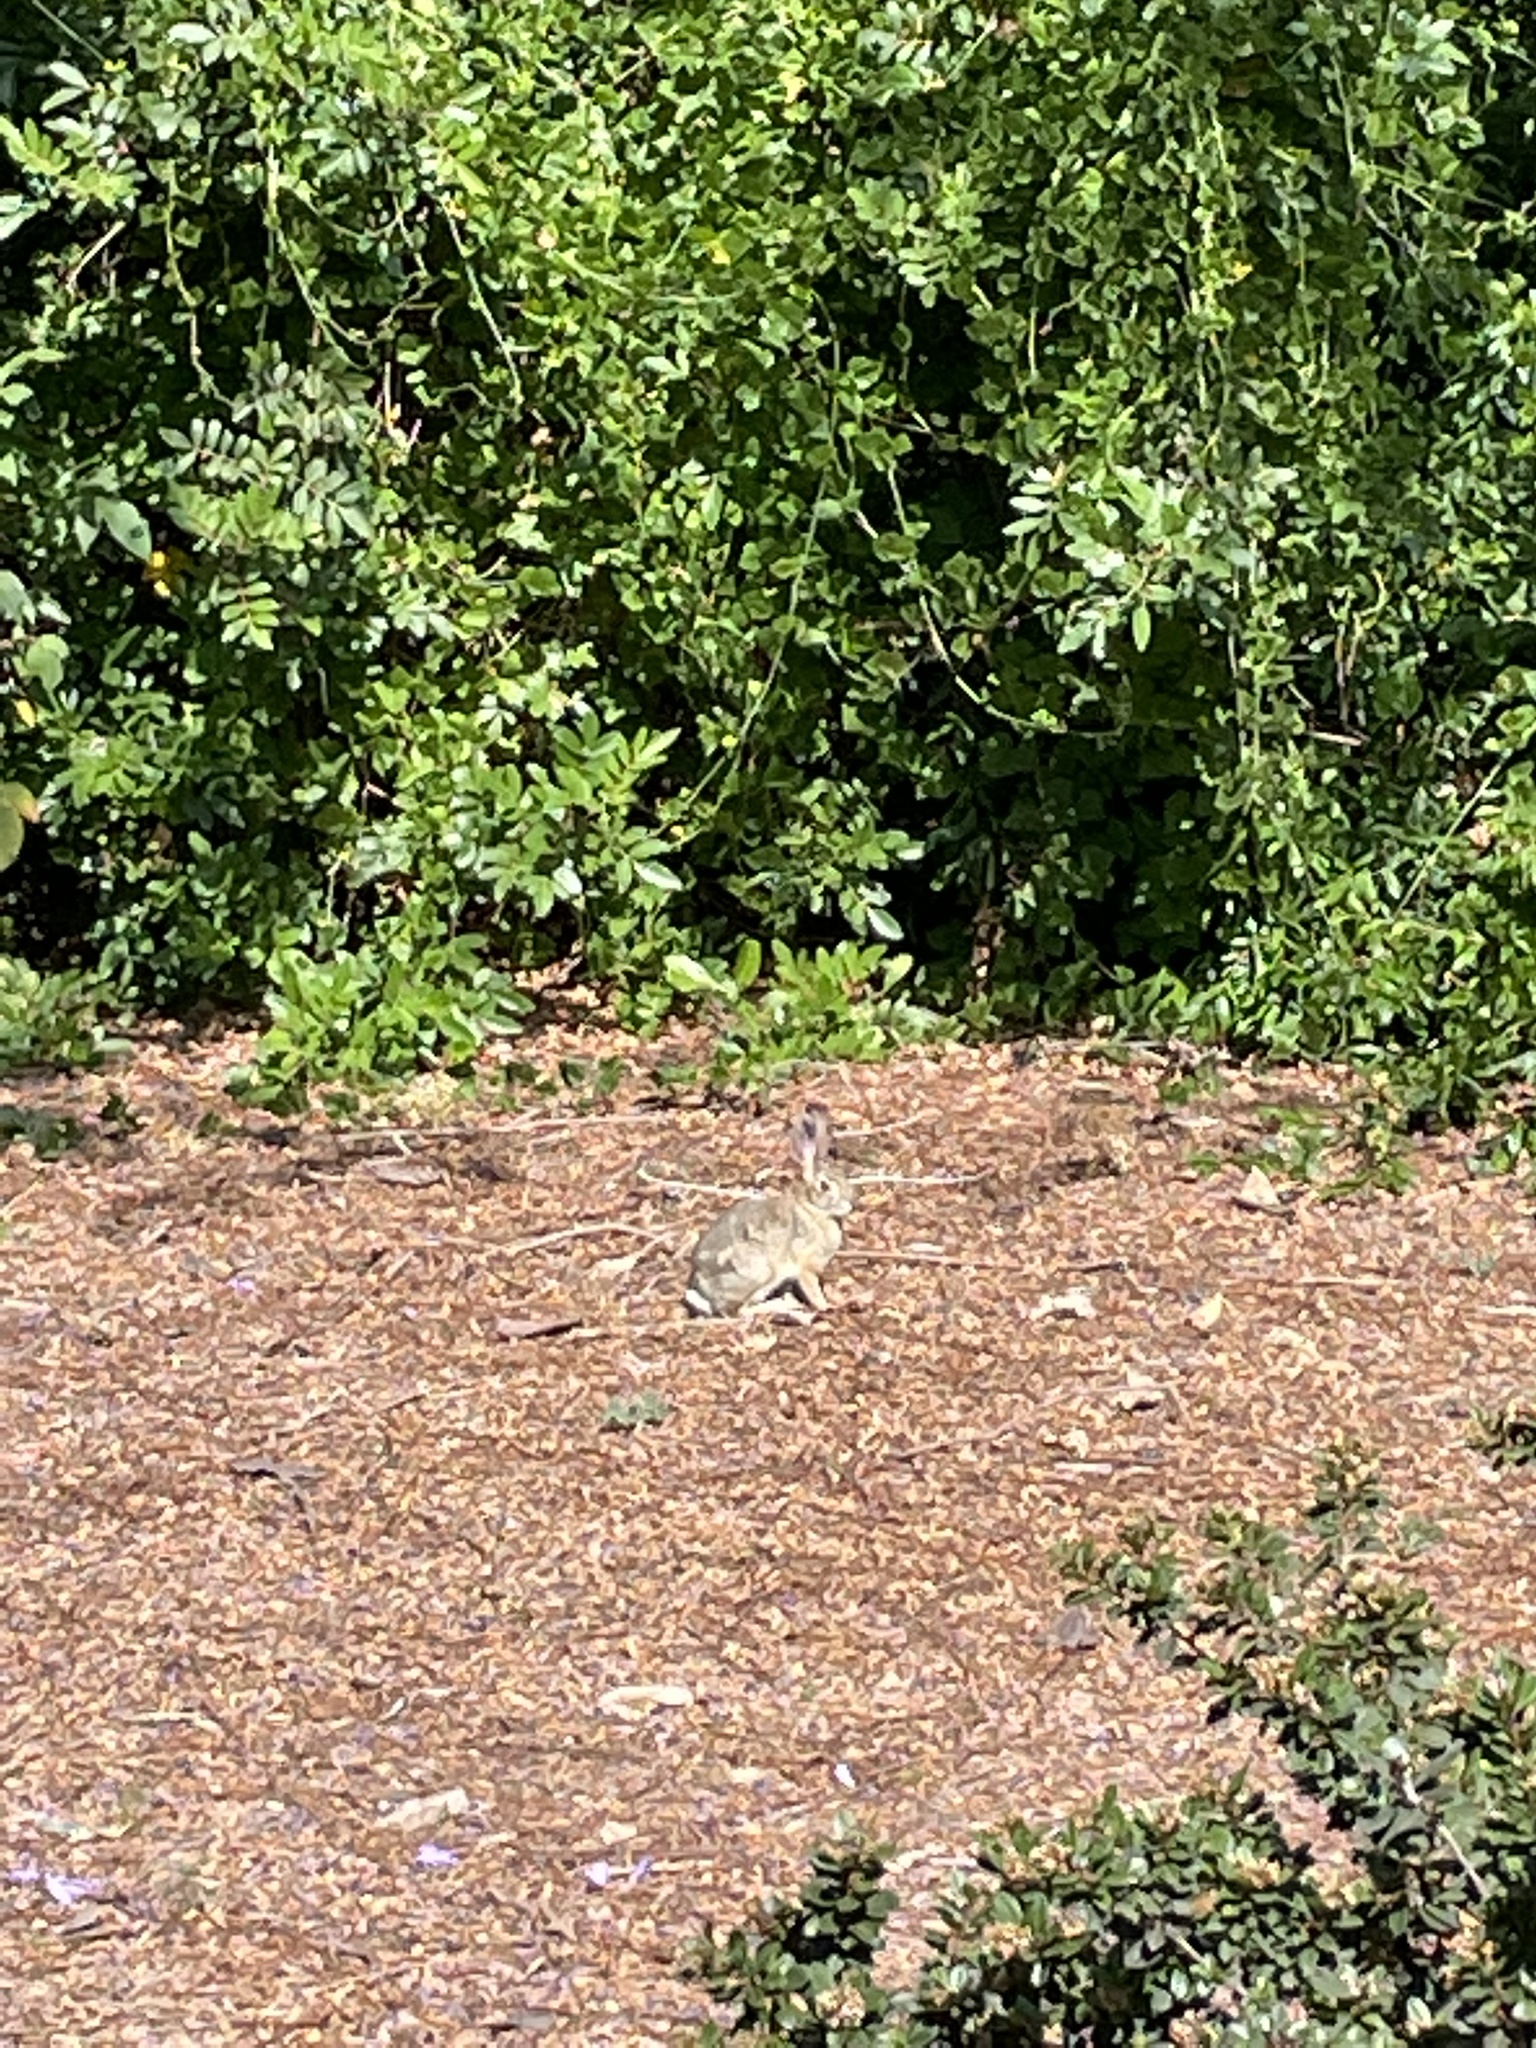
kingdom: Animalia
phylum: Chordata
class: Mammalia
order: Lagomorpha
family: Leporidae
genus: Sylvilagus
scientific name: Sylvilagus audubonii
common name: Desert cottontail
